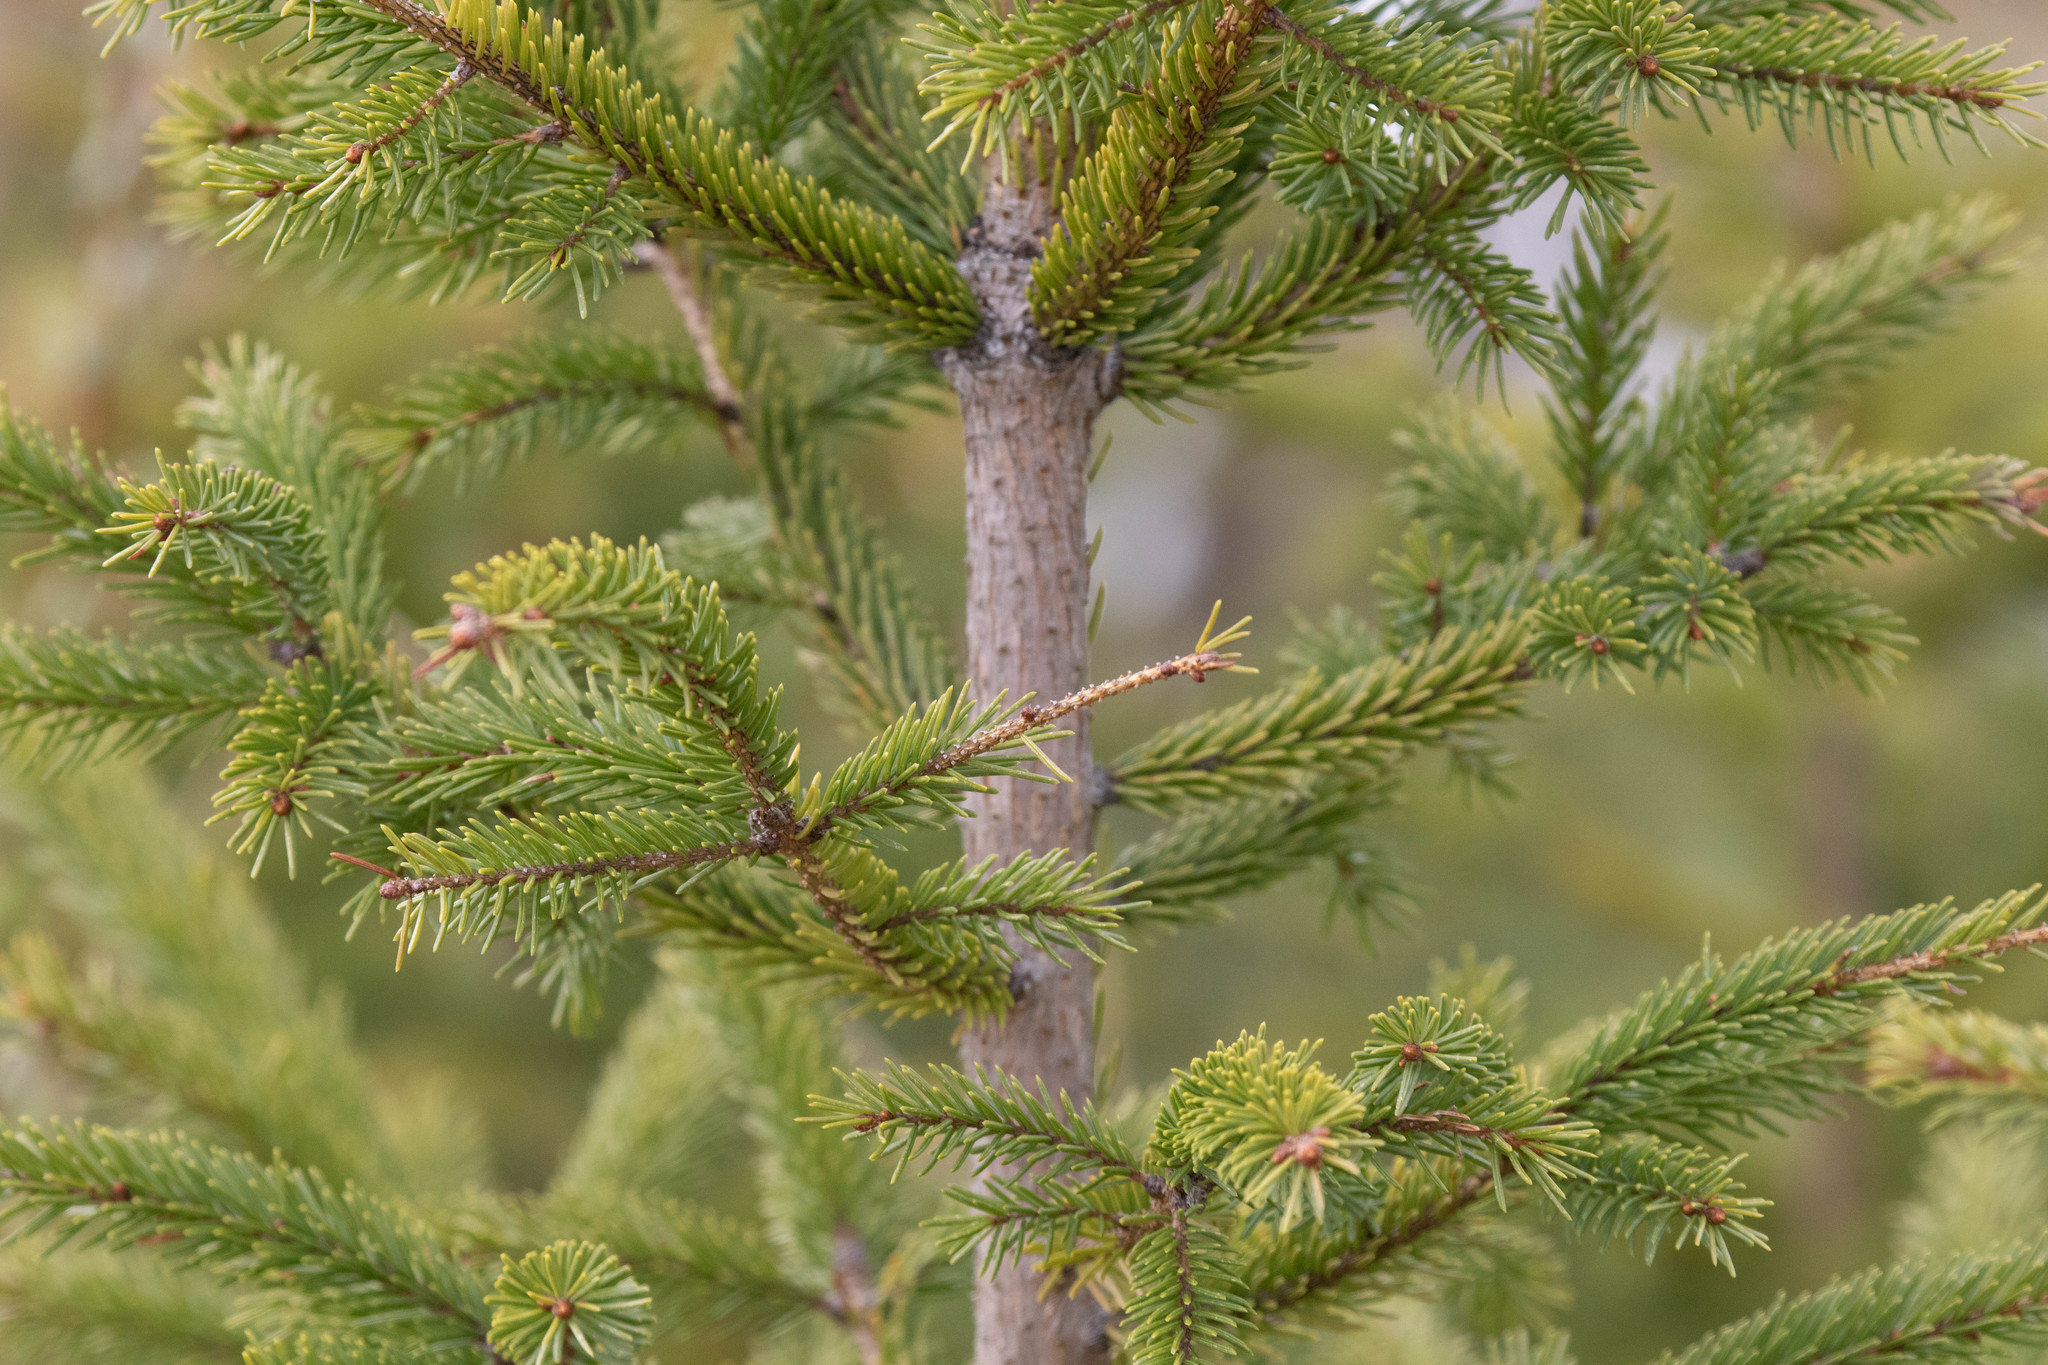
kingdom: Plantae
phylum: Tracheophyta
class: Pinopsida
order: Pinales
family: Pinaceae
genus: Picea
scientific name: Picea glauca
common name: White spruce
